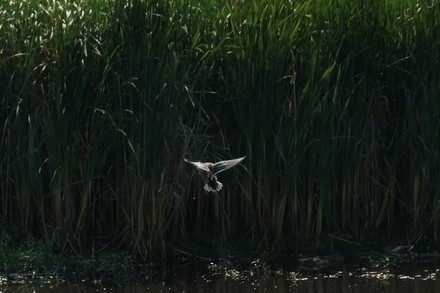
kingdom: Animalia
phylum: Chordata
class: Aves
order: Anseriformes
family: Anatidae
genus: Anas
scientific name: Anas platyrhynchos
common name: Mallard
